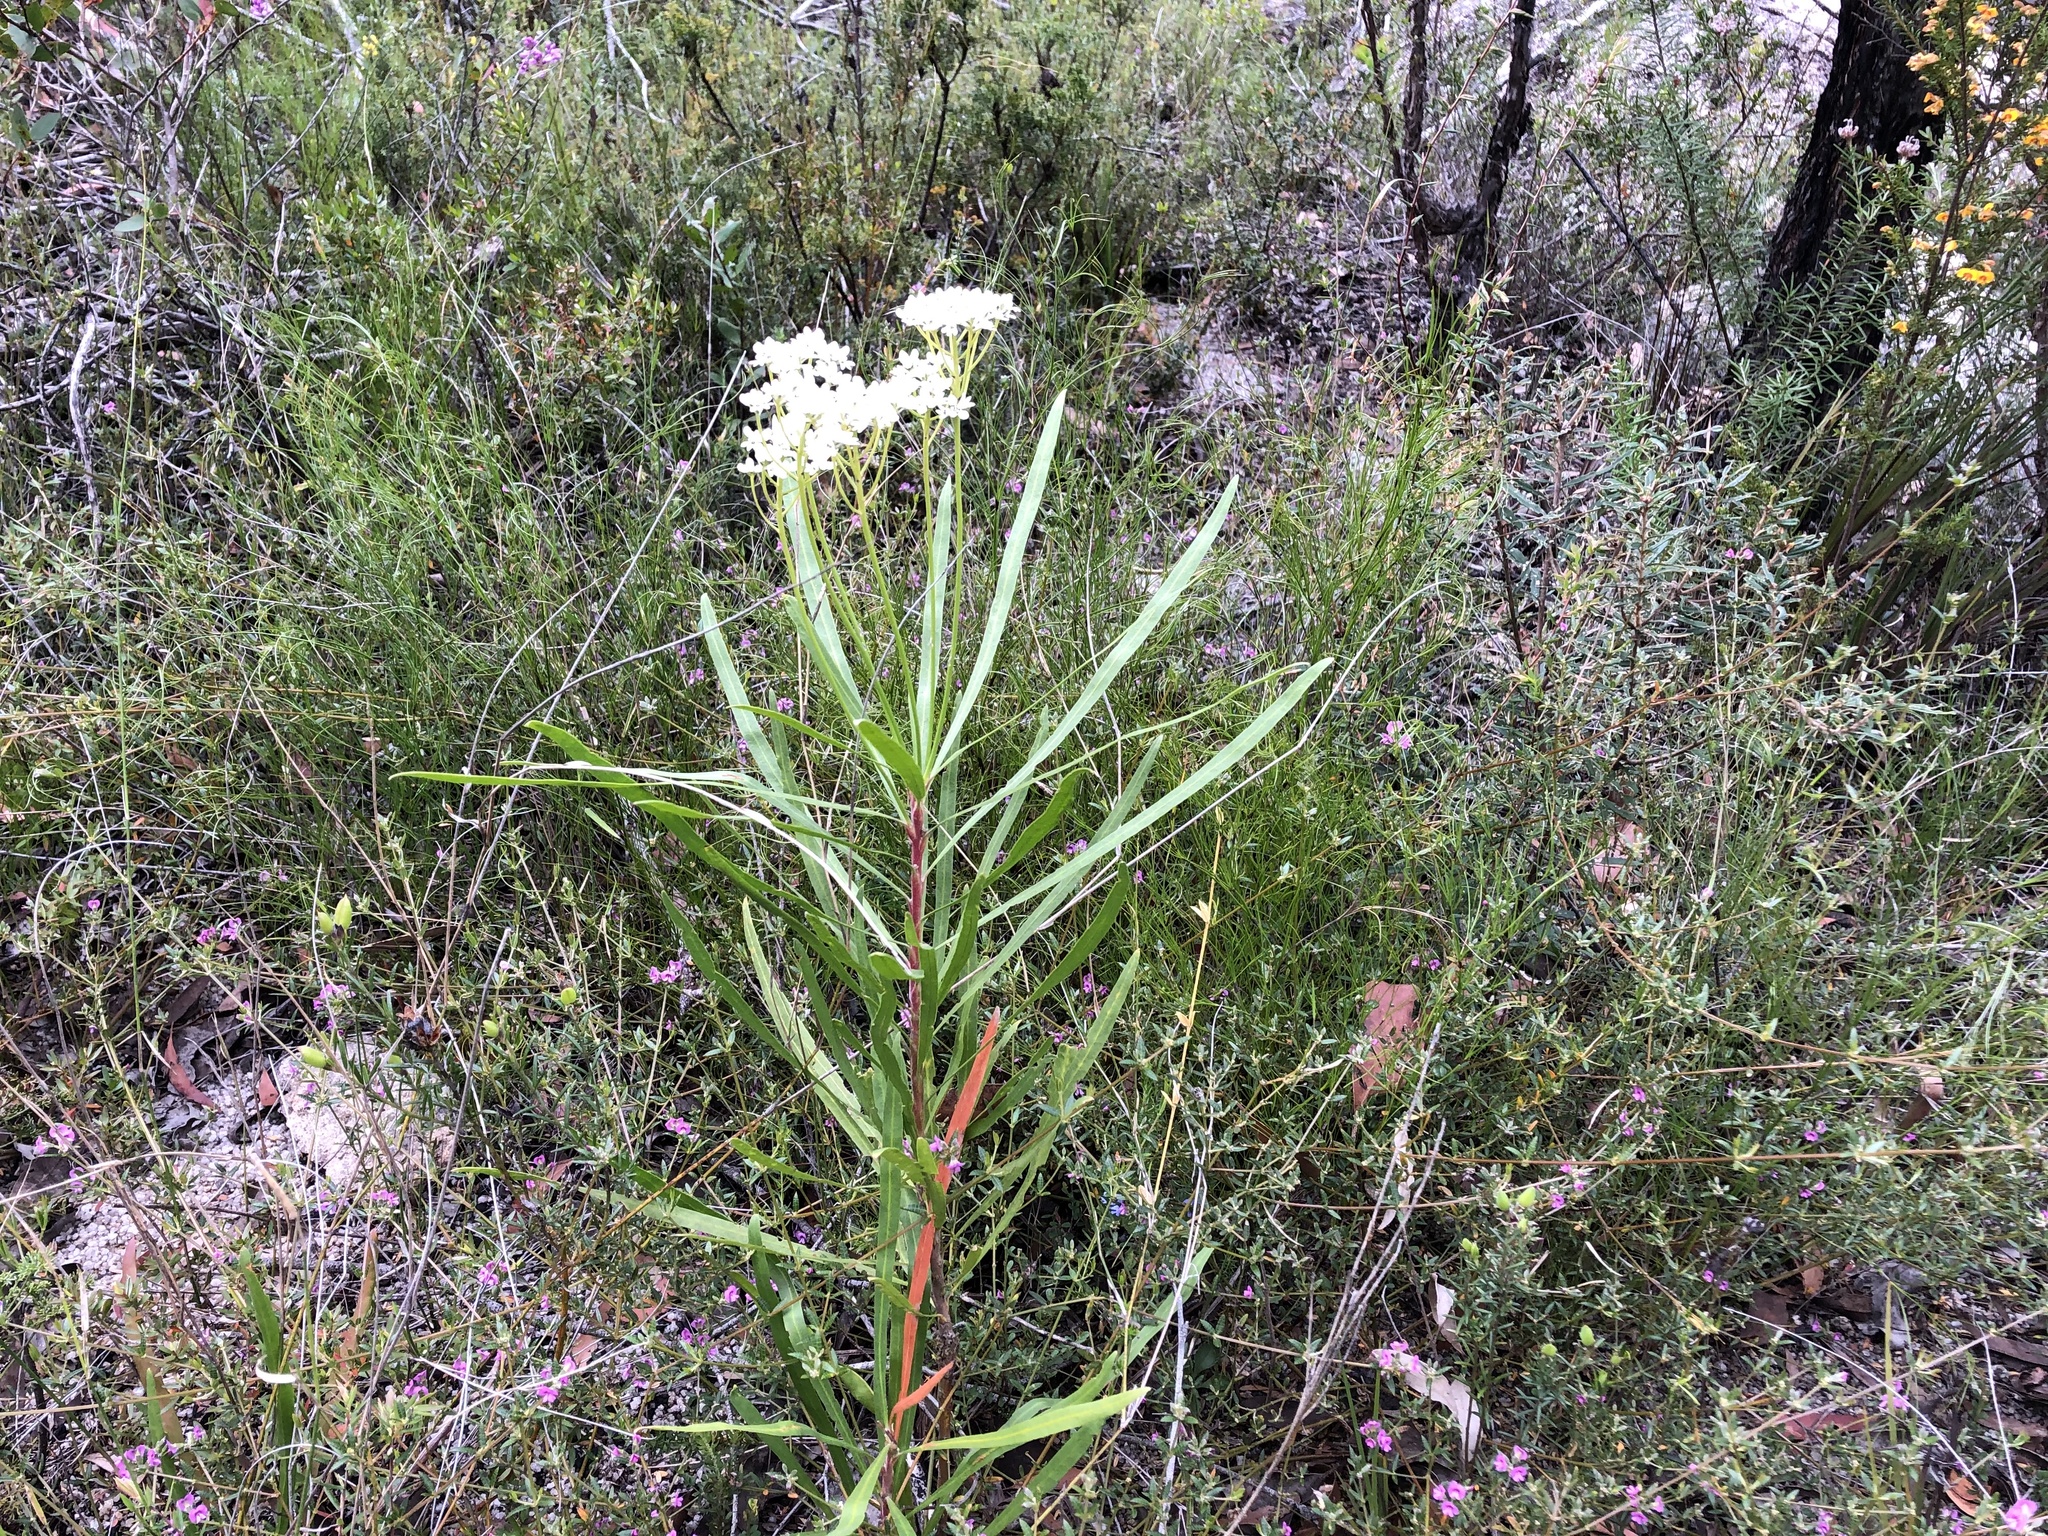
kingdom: Plantae
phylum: Tracheophyta
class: Magnoliopsida
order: Proteales
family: Proteaceae
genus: Conospermum
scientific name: Conospermum burgessiorum
